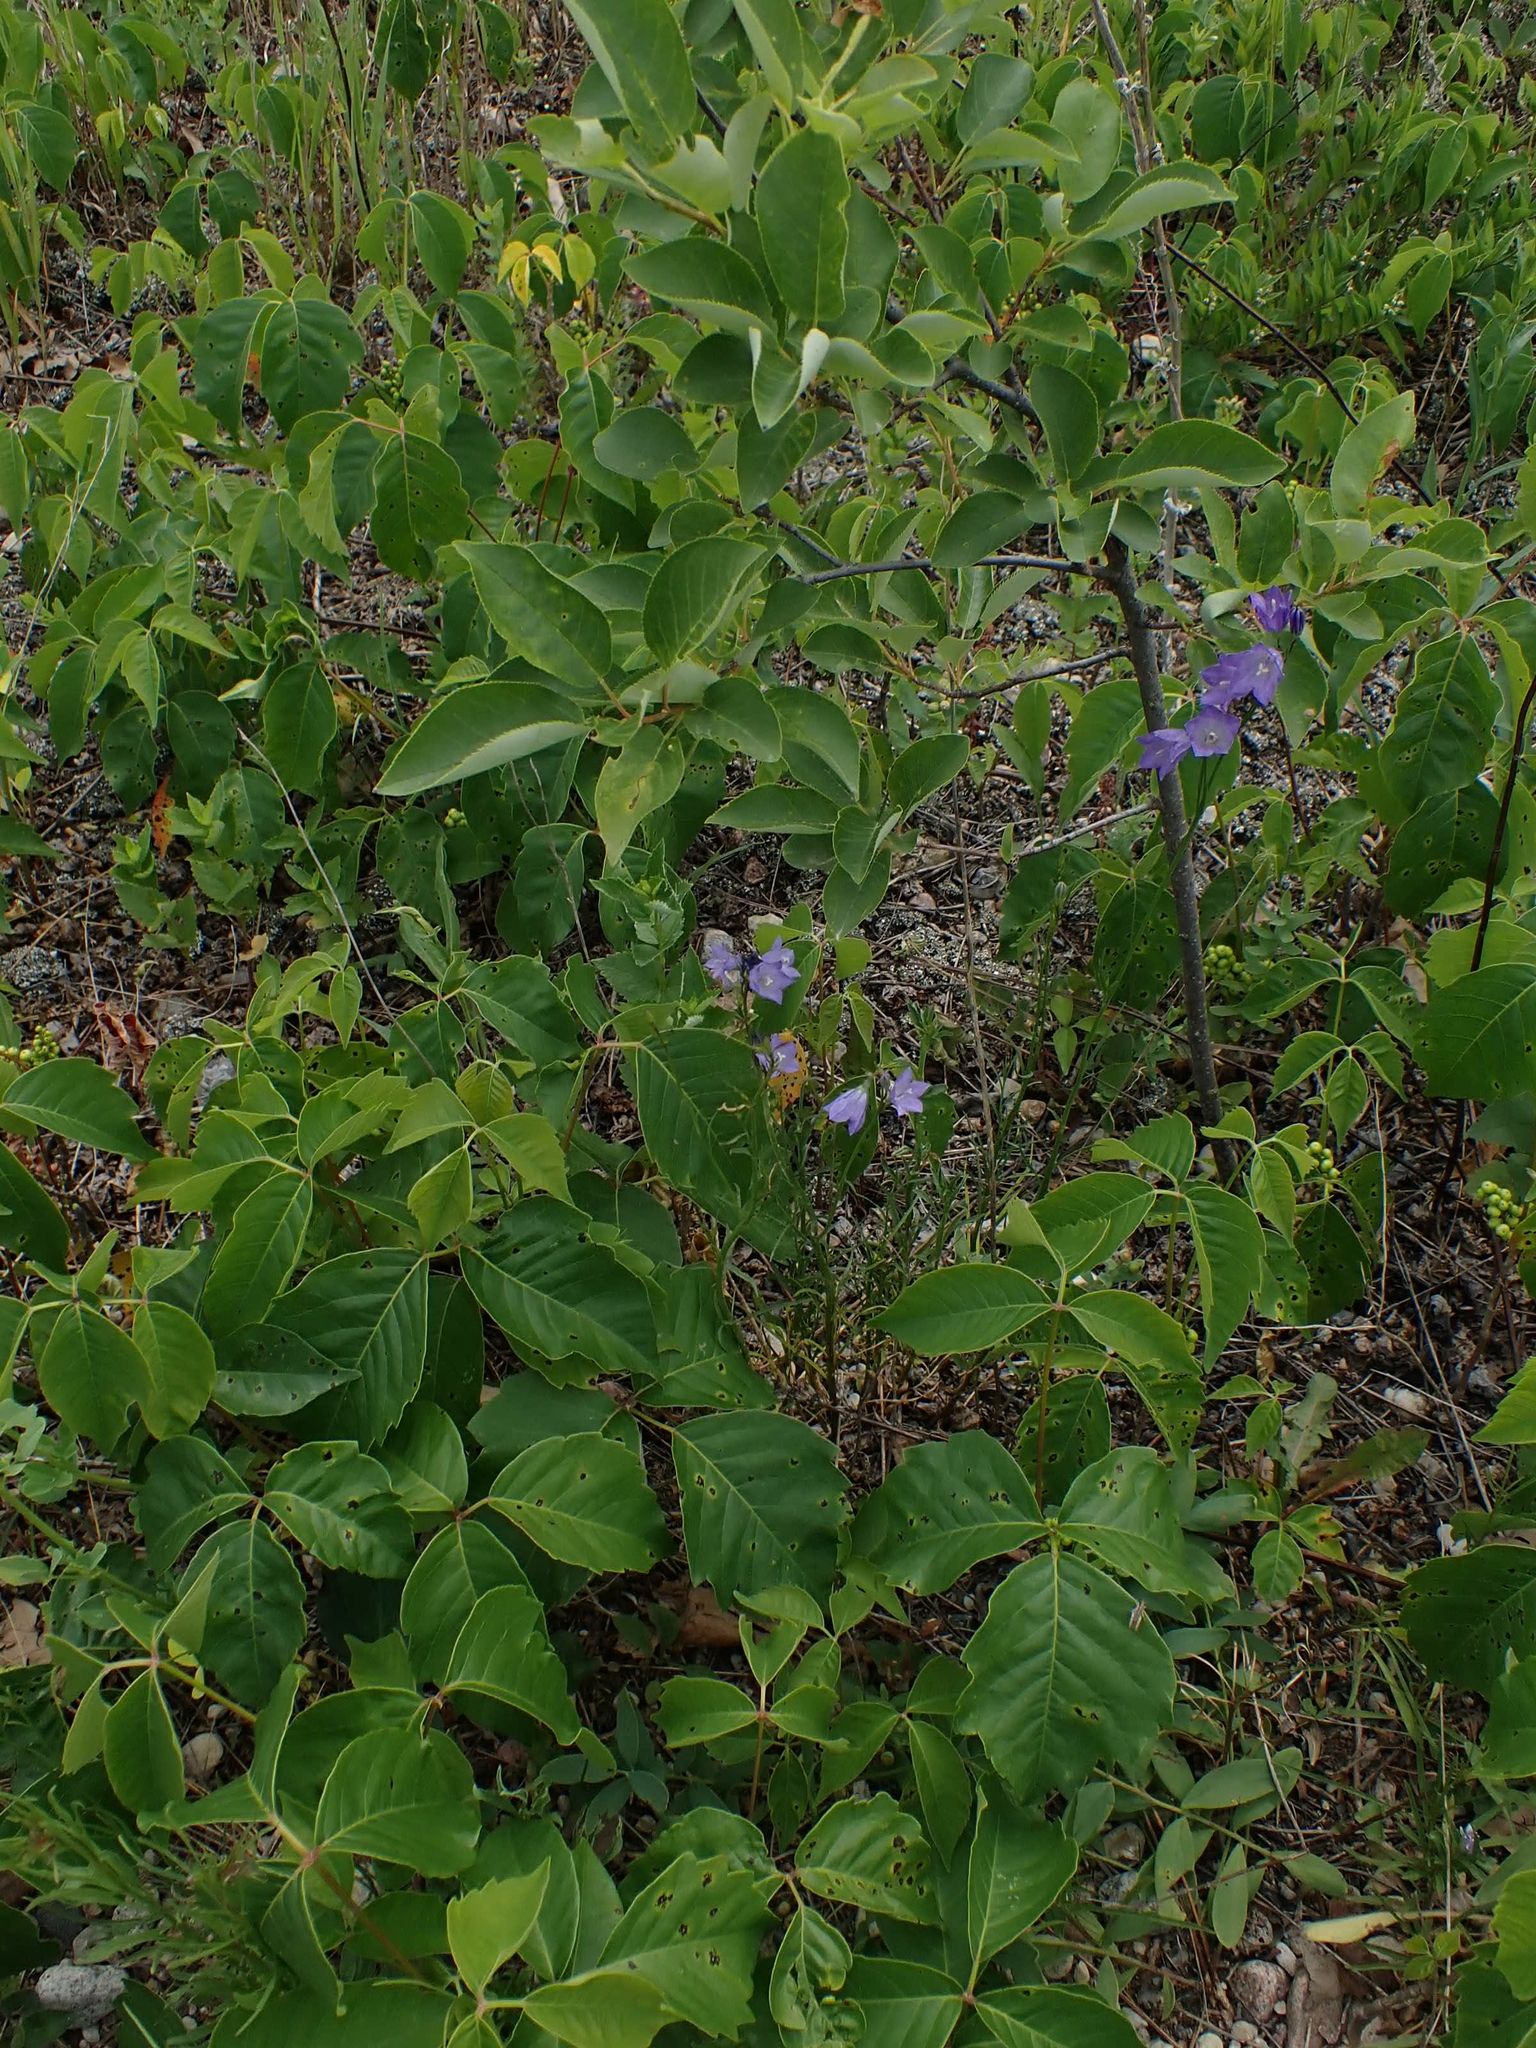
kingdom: Plantae
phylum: Tracheophyta
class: Magnoliopsida
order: Asterales
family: Campanulaceae
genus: Campanula
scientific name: Campanula petiolata
